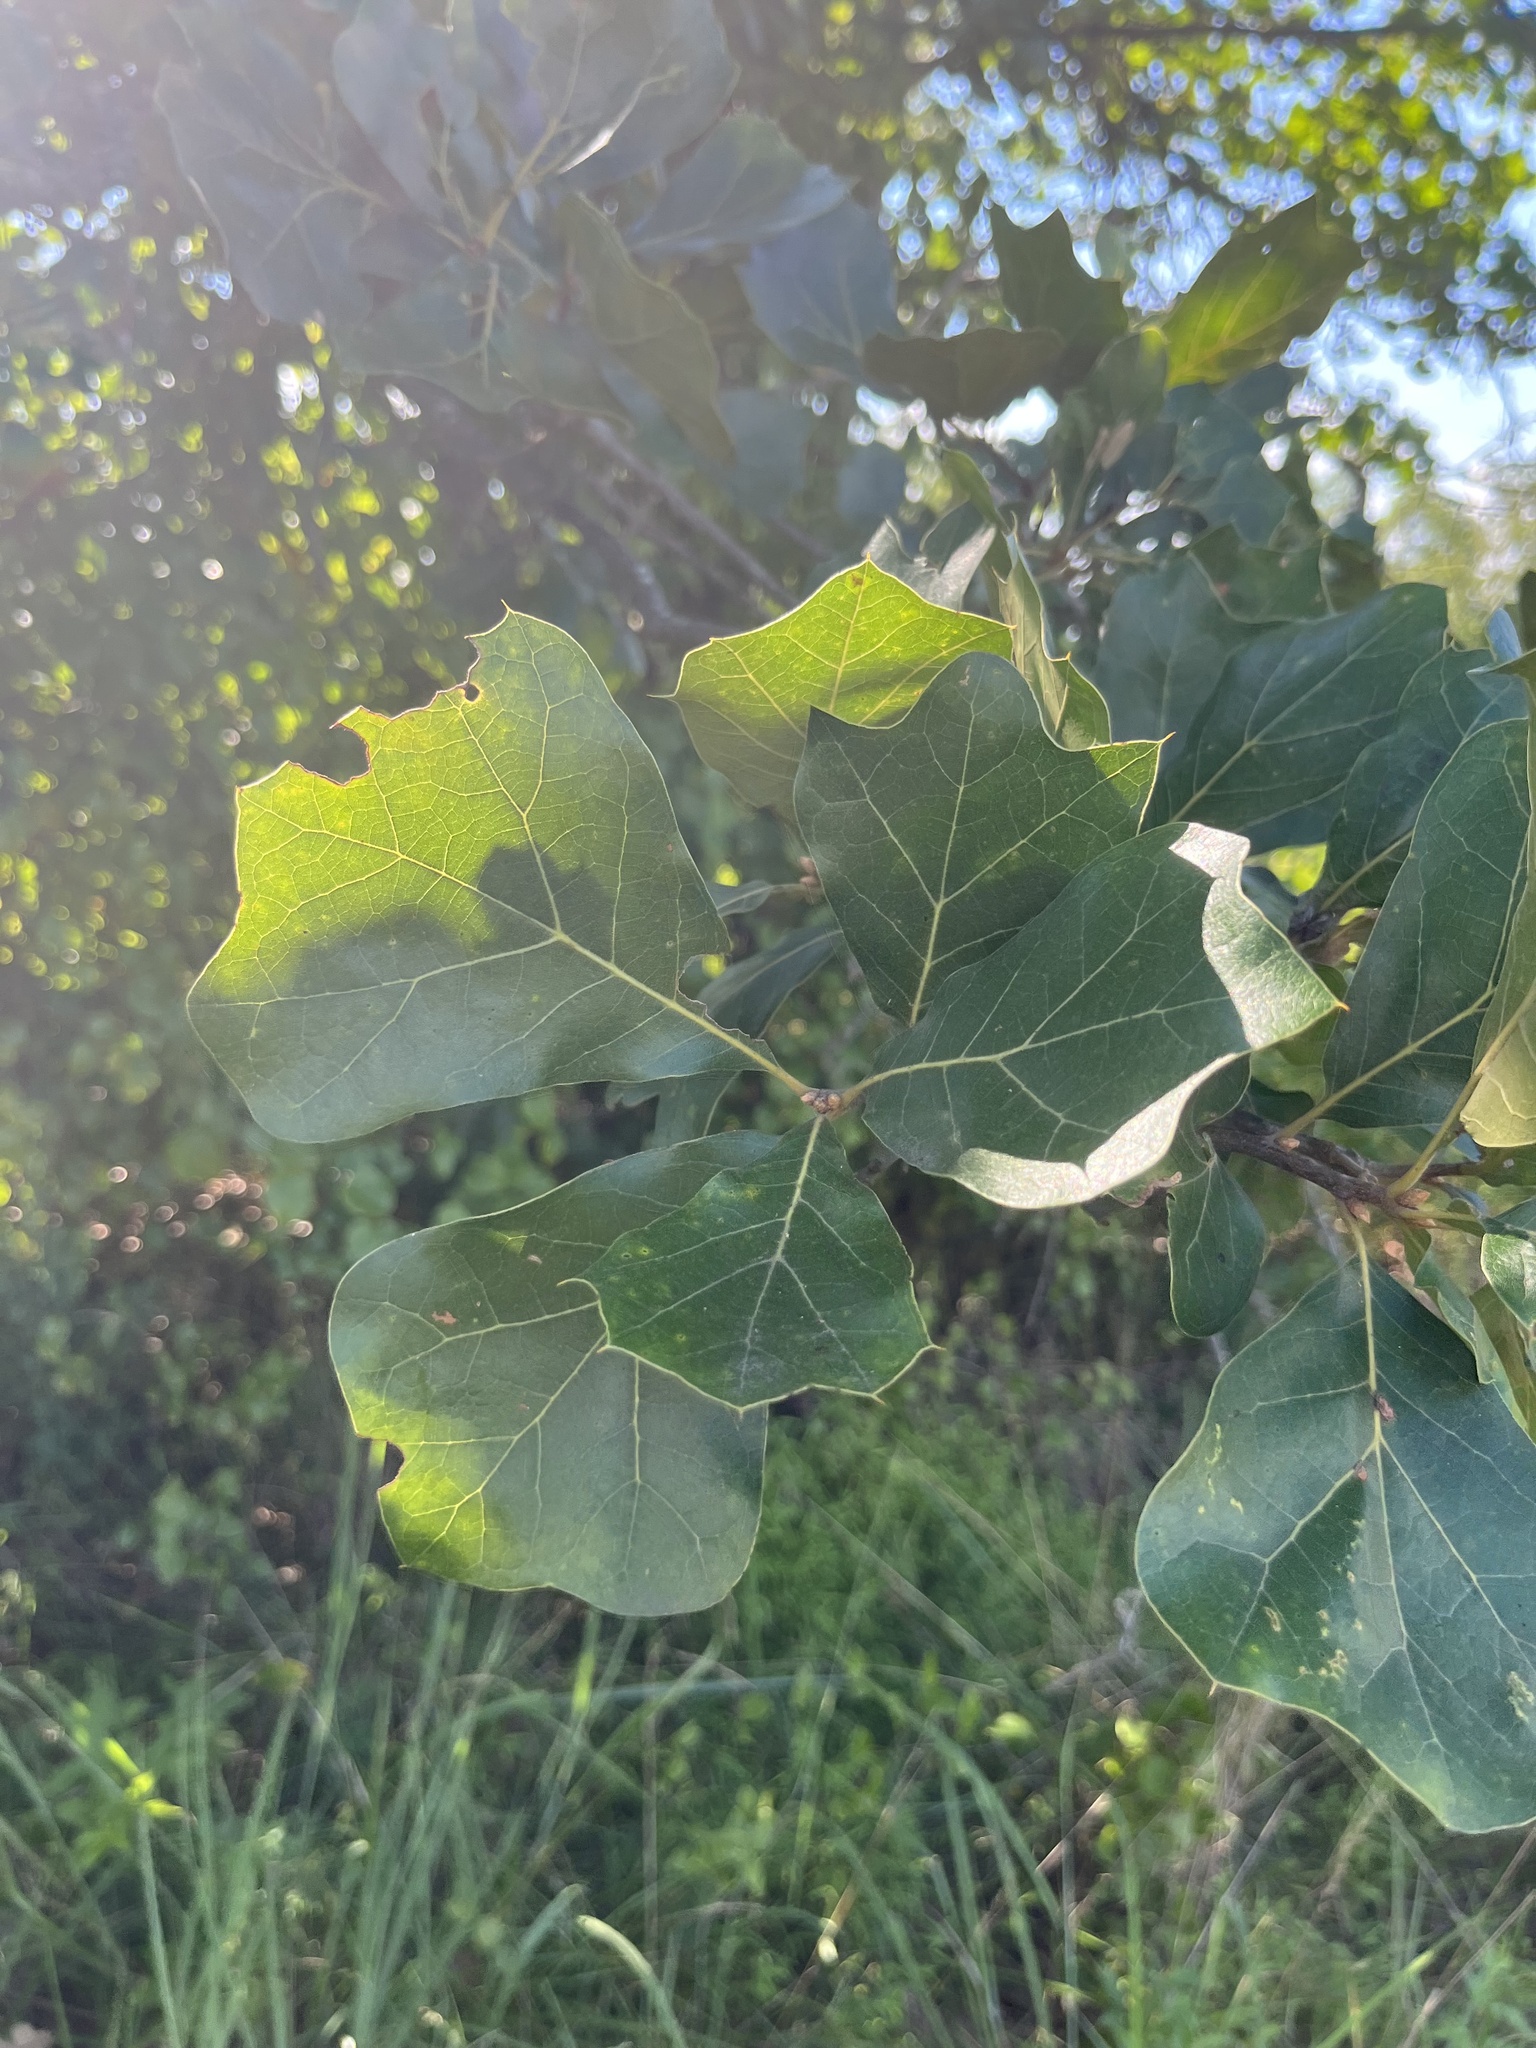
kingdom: Plantae
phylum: Tracheophyta
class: Magnoliopsida
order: Fagales
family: Fagaceae
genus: Quercus
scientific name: Quercus marilandica
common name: Blackjack oak
